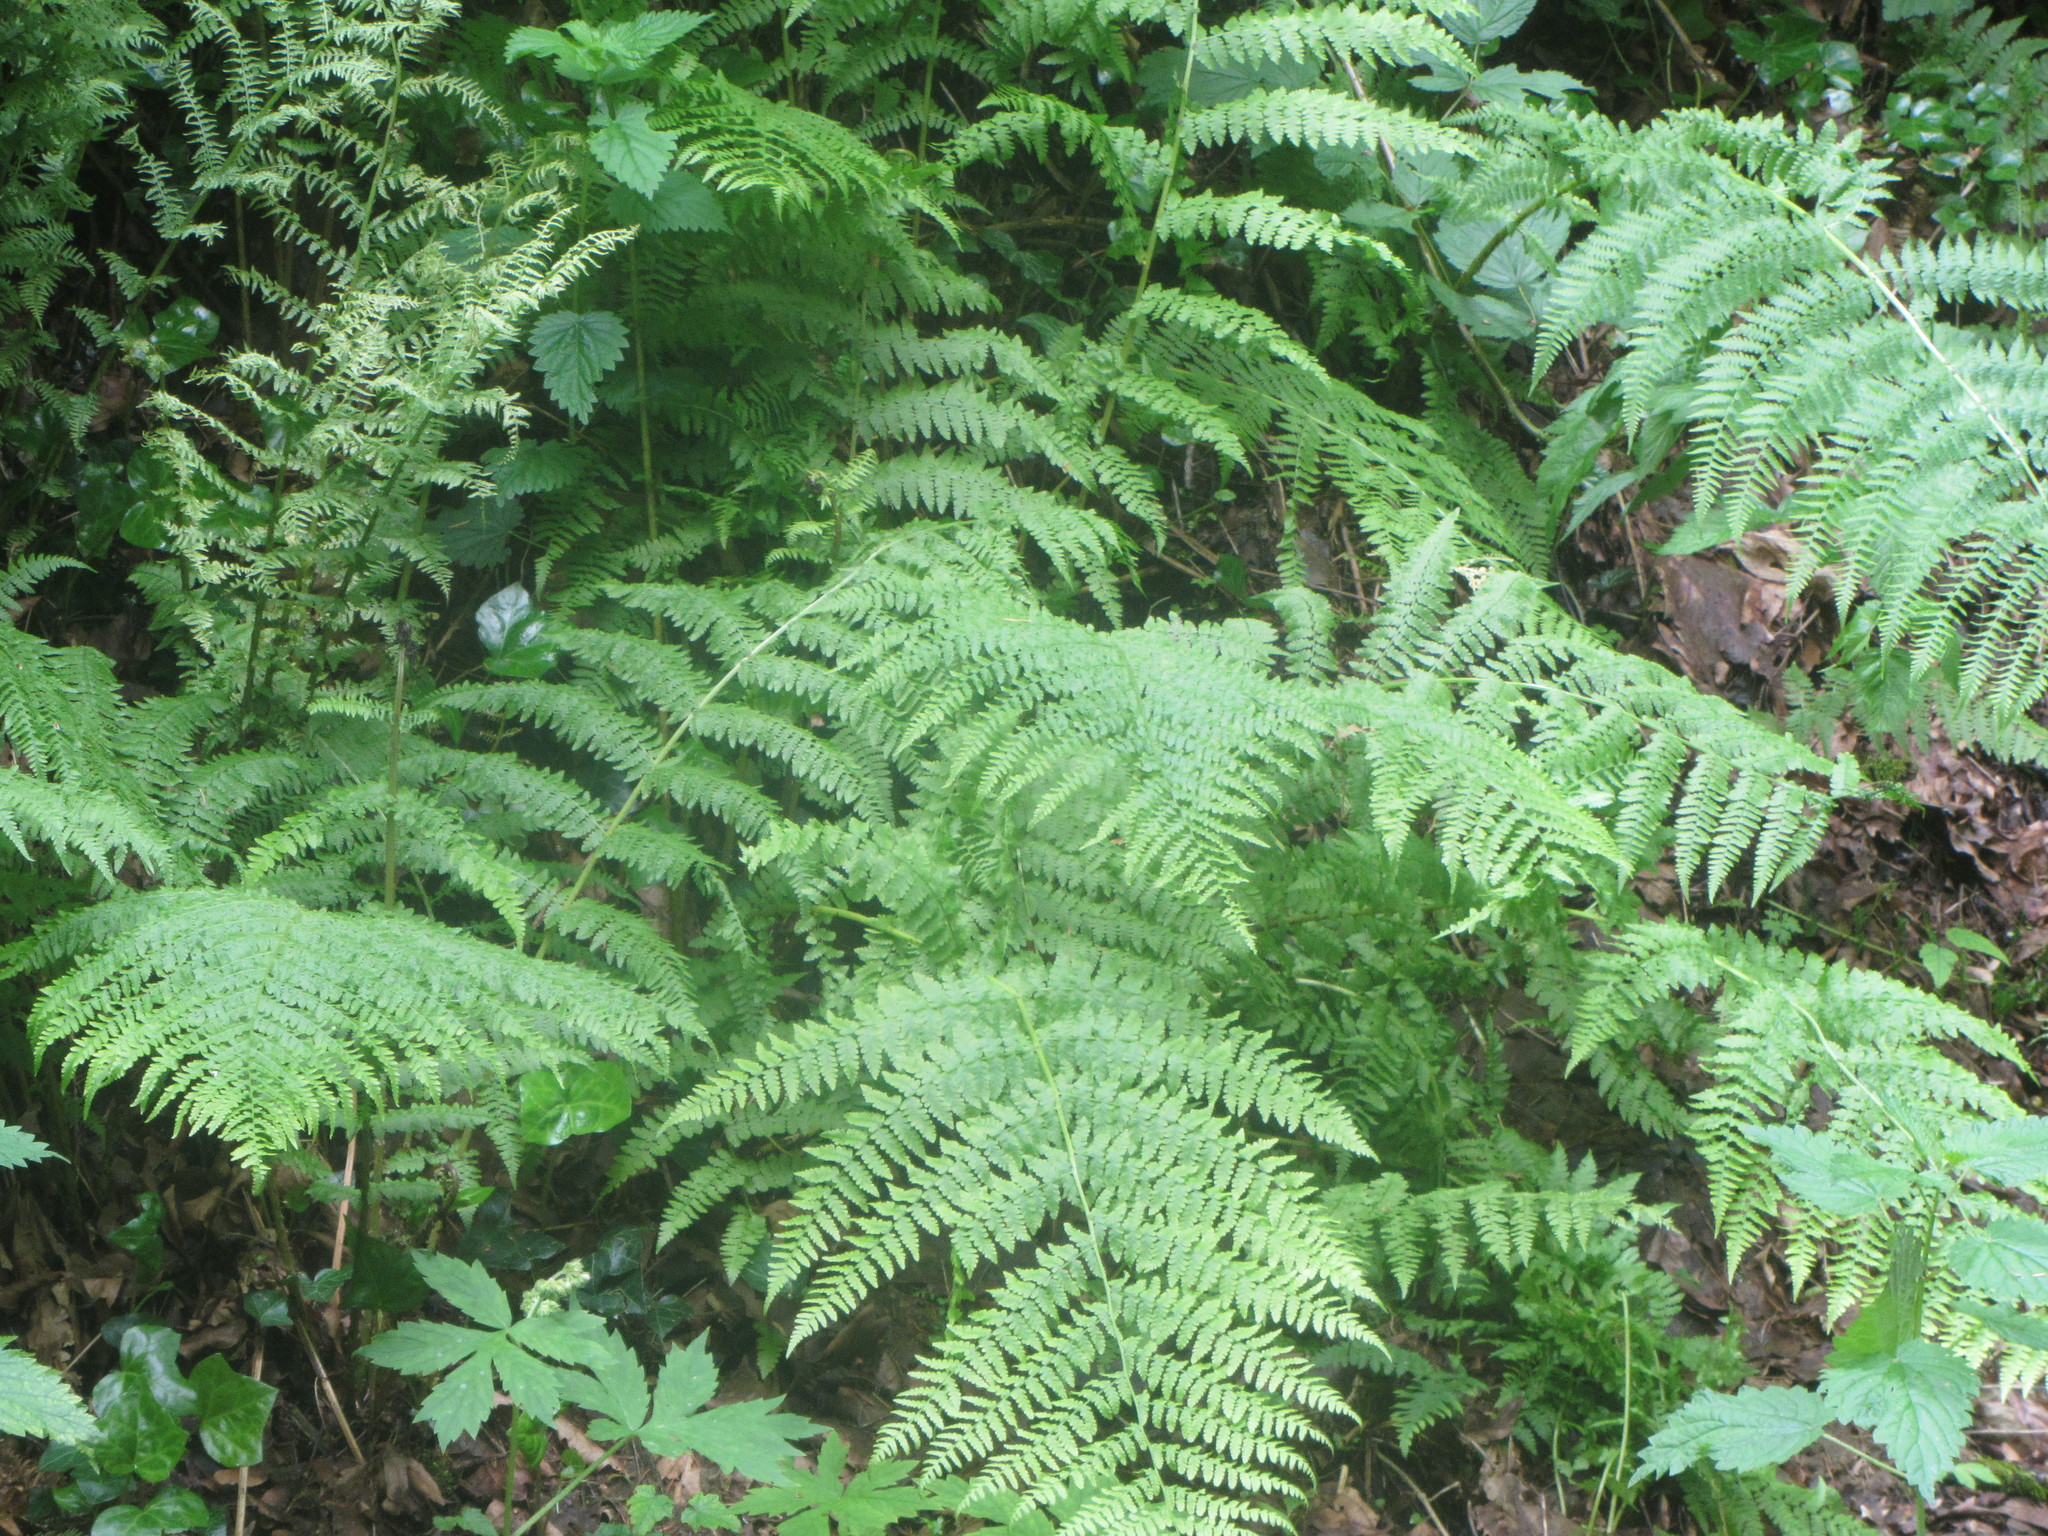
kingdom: Plantae
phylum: Tracheophyta
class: Polypodiopsida
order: Polypodiales
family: Athyriaceae
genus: Athyrium
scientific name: Athyrium filix-femina
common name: Lady fern
